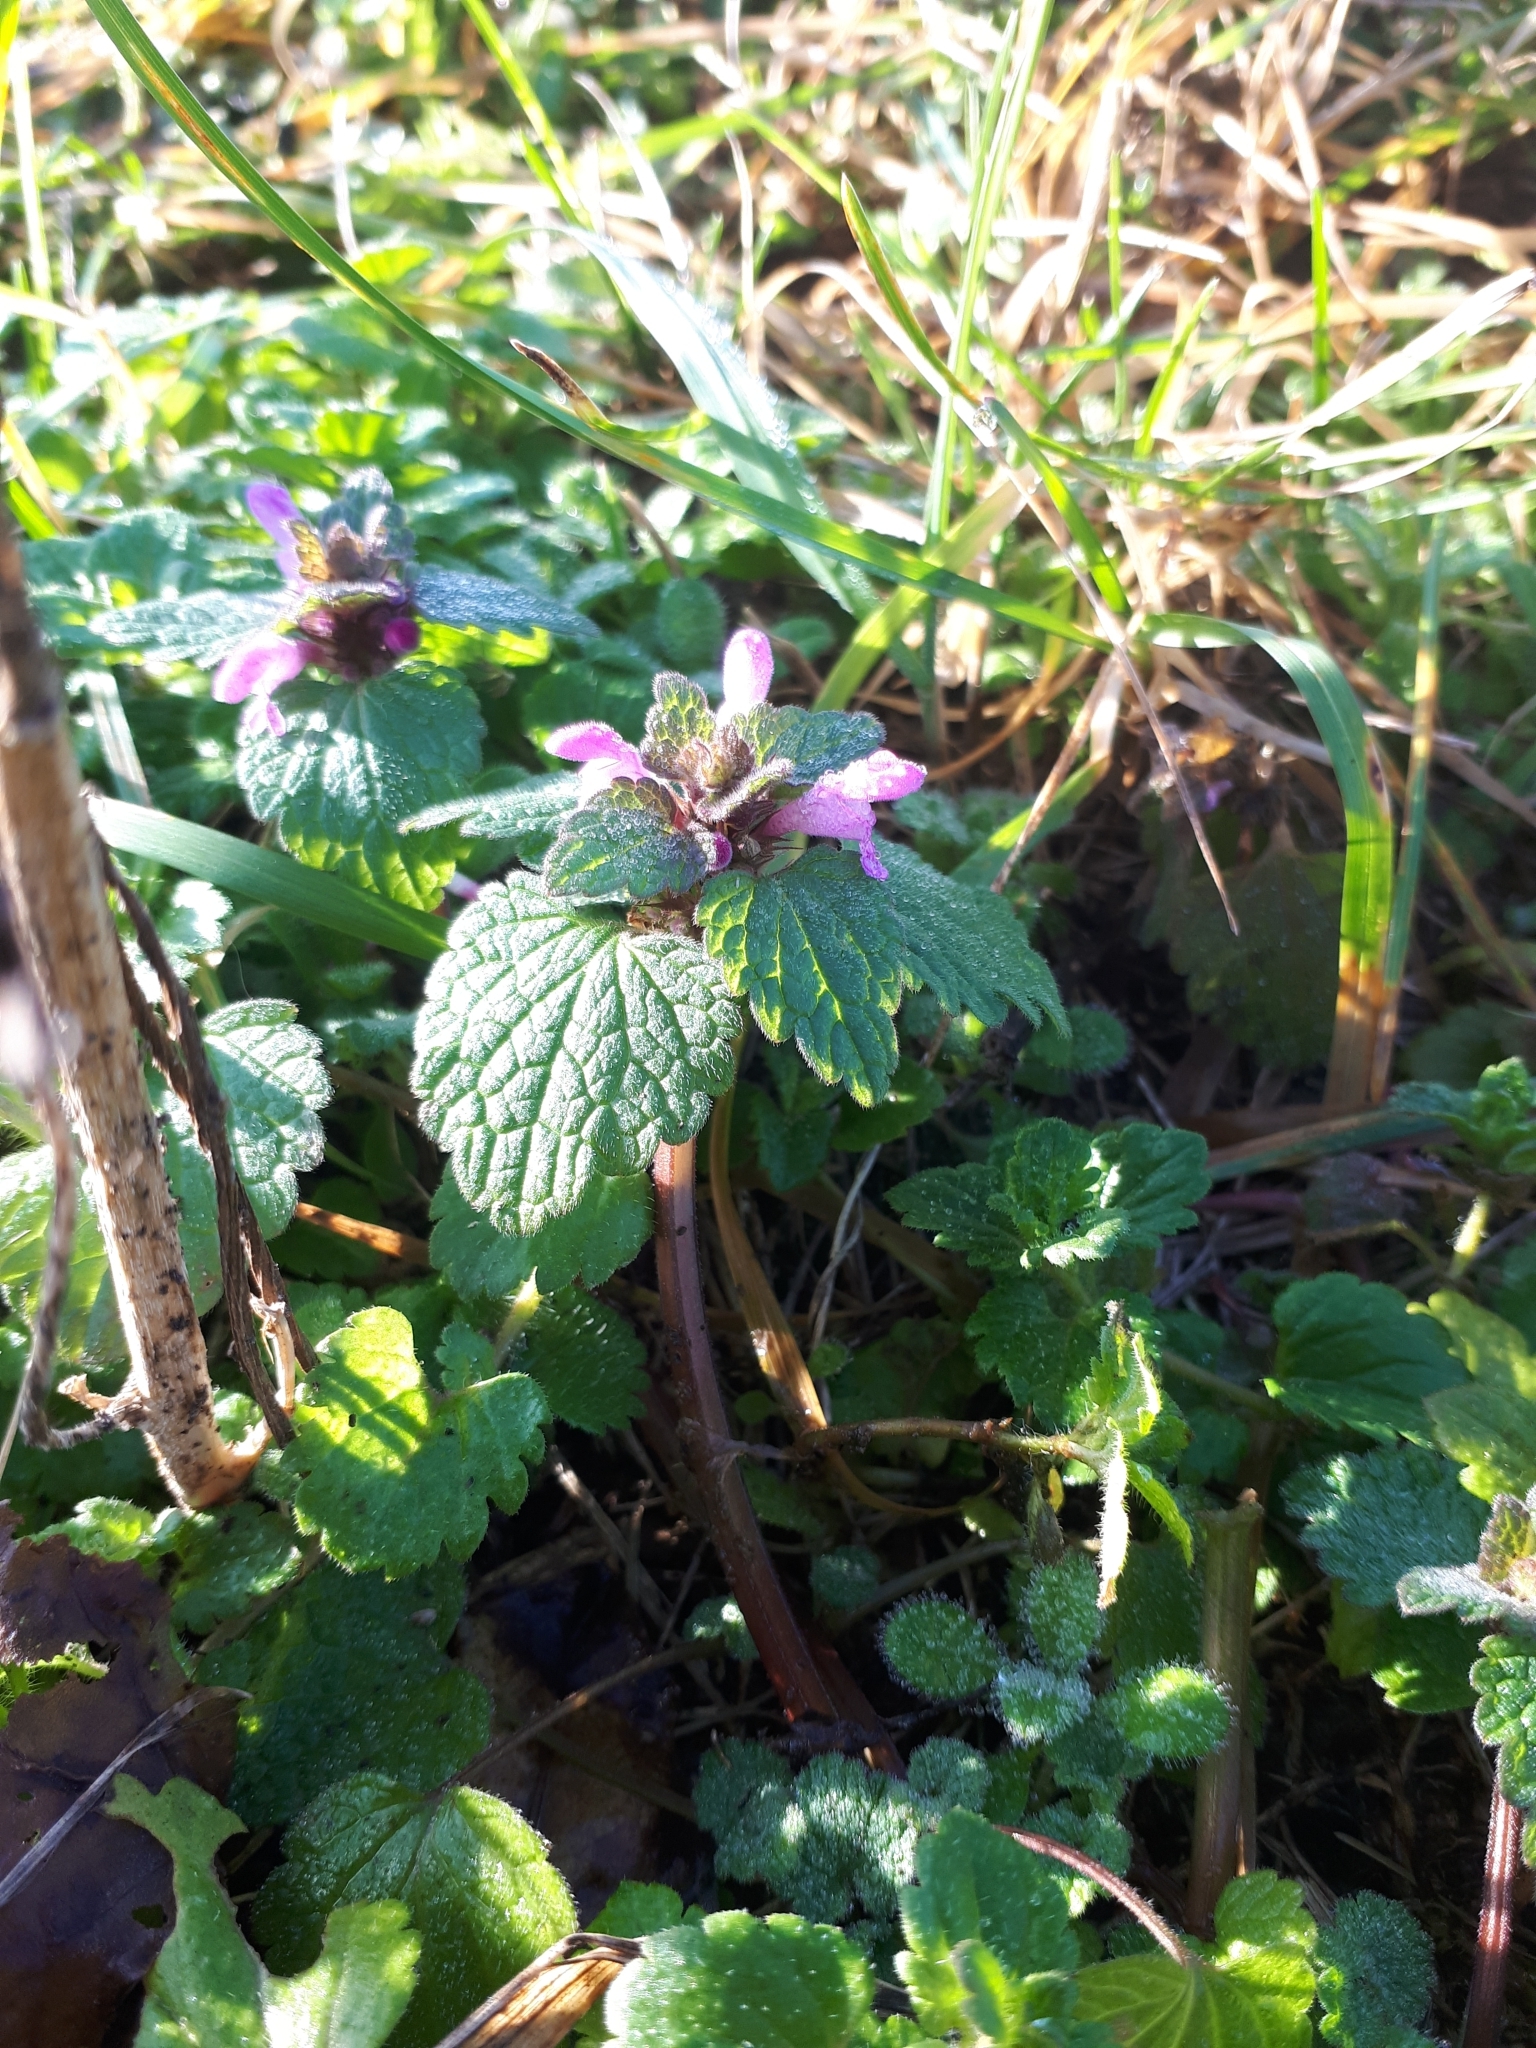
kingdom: Plantae
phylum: Tracheophyta
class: Magnoliopsida
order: Lamiales
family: Lamiaceae
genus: Lamium
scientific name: Lamium purpureum
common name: Red dead-nettle
